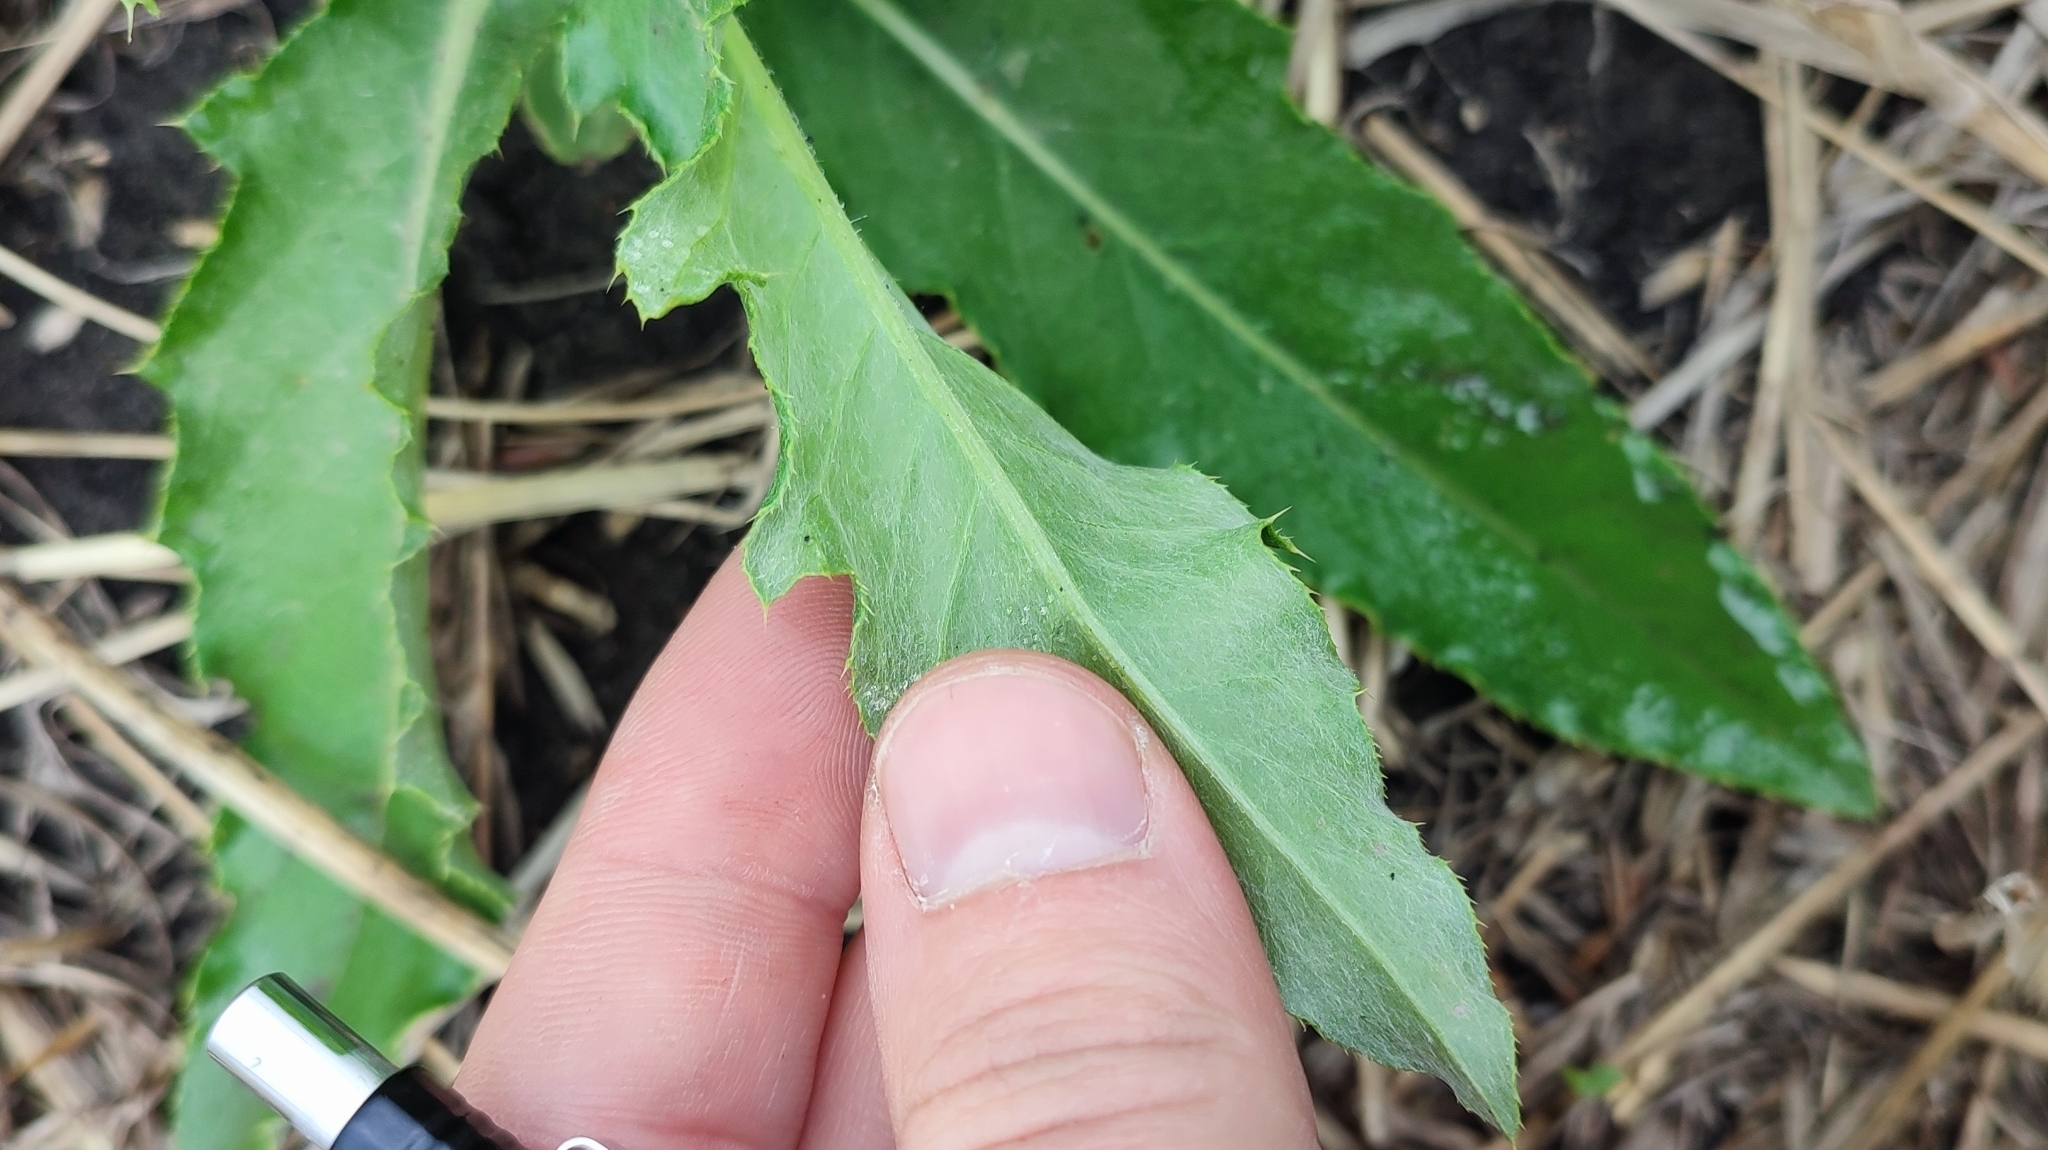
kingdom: Plantae
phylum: Tracheophyta
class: Magnoliopsida
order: Asterales
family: Asteraceae
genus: Cirsium
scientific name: Cirsium arvense
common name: Creeping thistle
